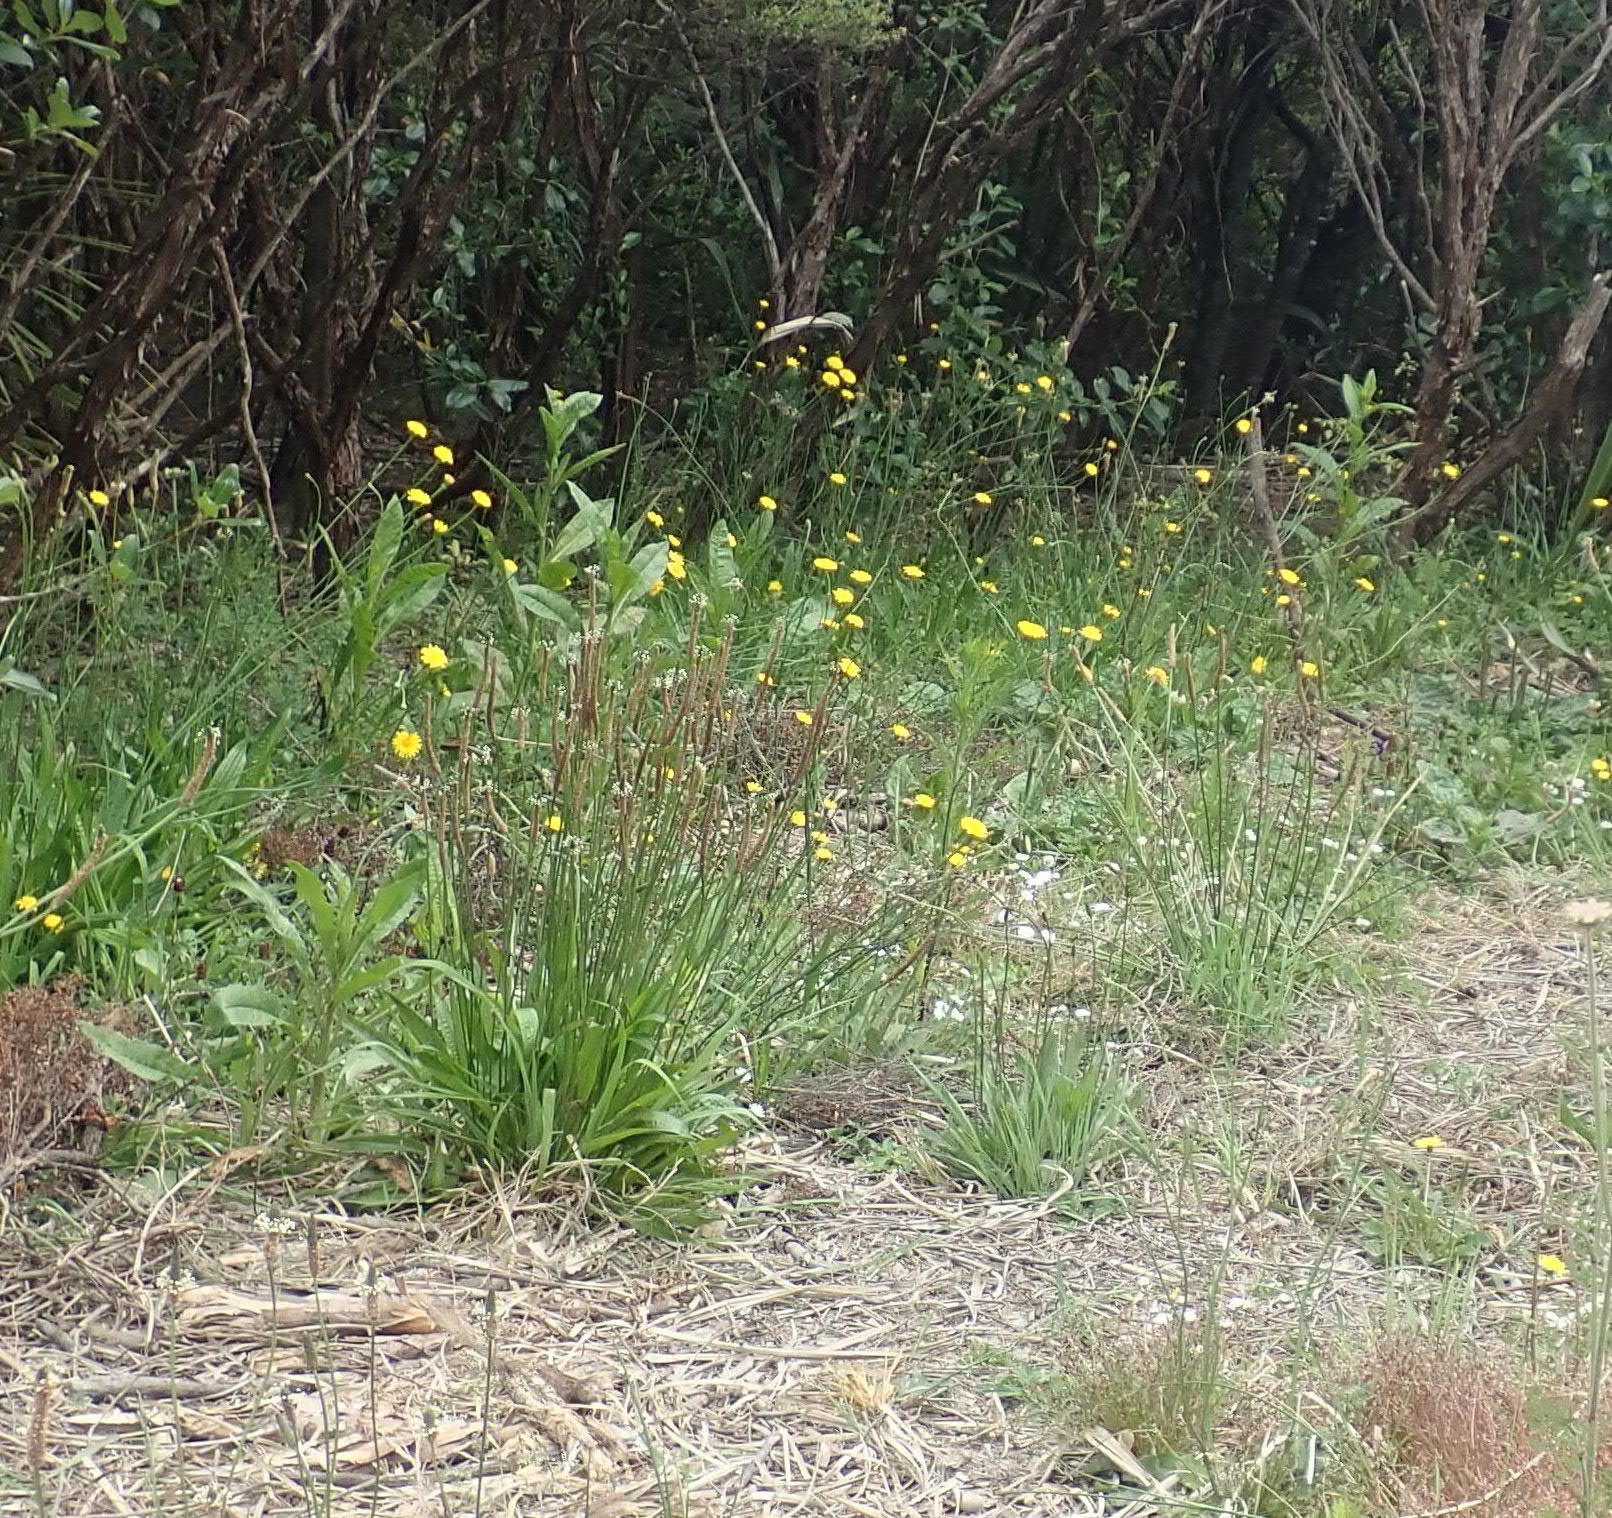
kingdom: Plantae
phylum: Tracheophyta
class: Magnoliopsida
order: Lamiales
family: Plantaginaceae
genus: Plantago
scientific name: Plantago lanceolata
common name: Ribwort plantain
